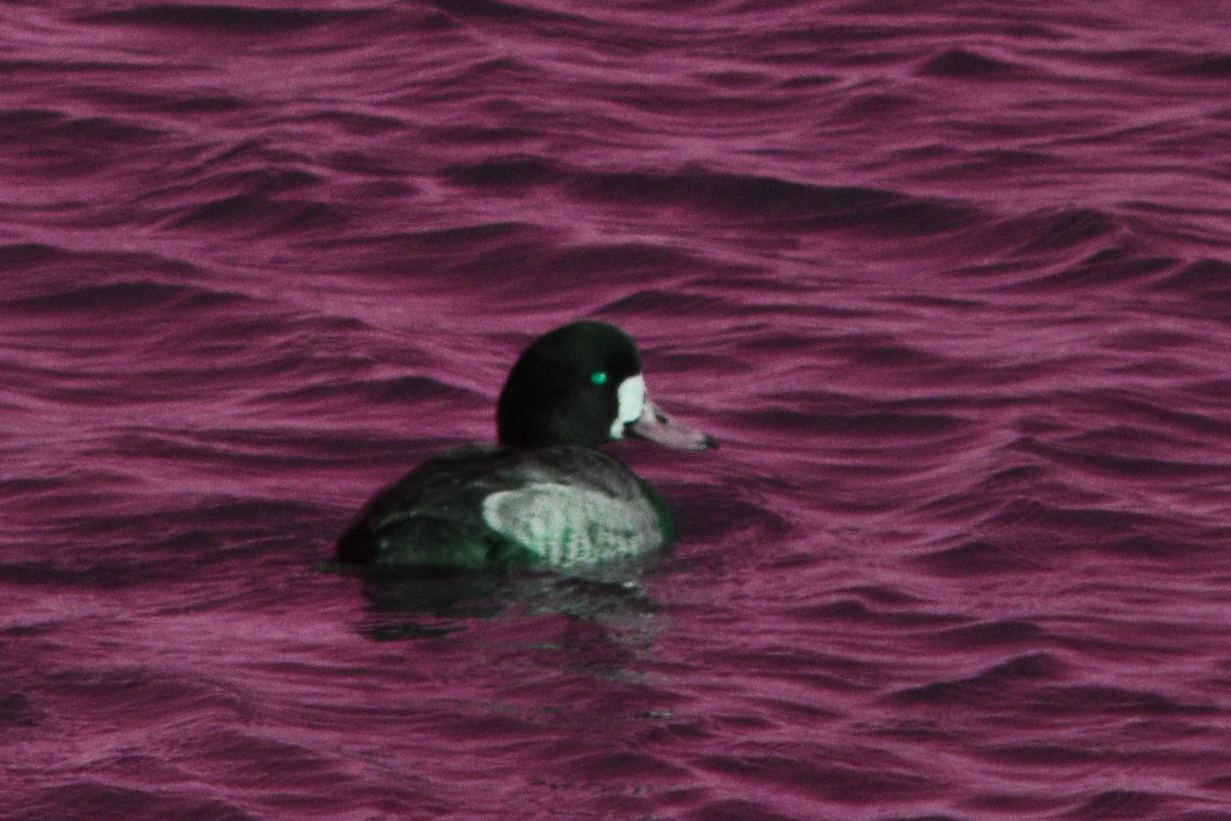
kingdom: Animalia
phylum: Chordata
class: Aves
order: Anseriformes
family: Anatidae
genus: Aythya
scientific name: Aythya marila
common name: Greater scaup
